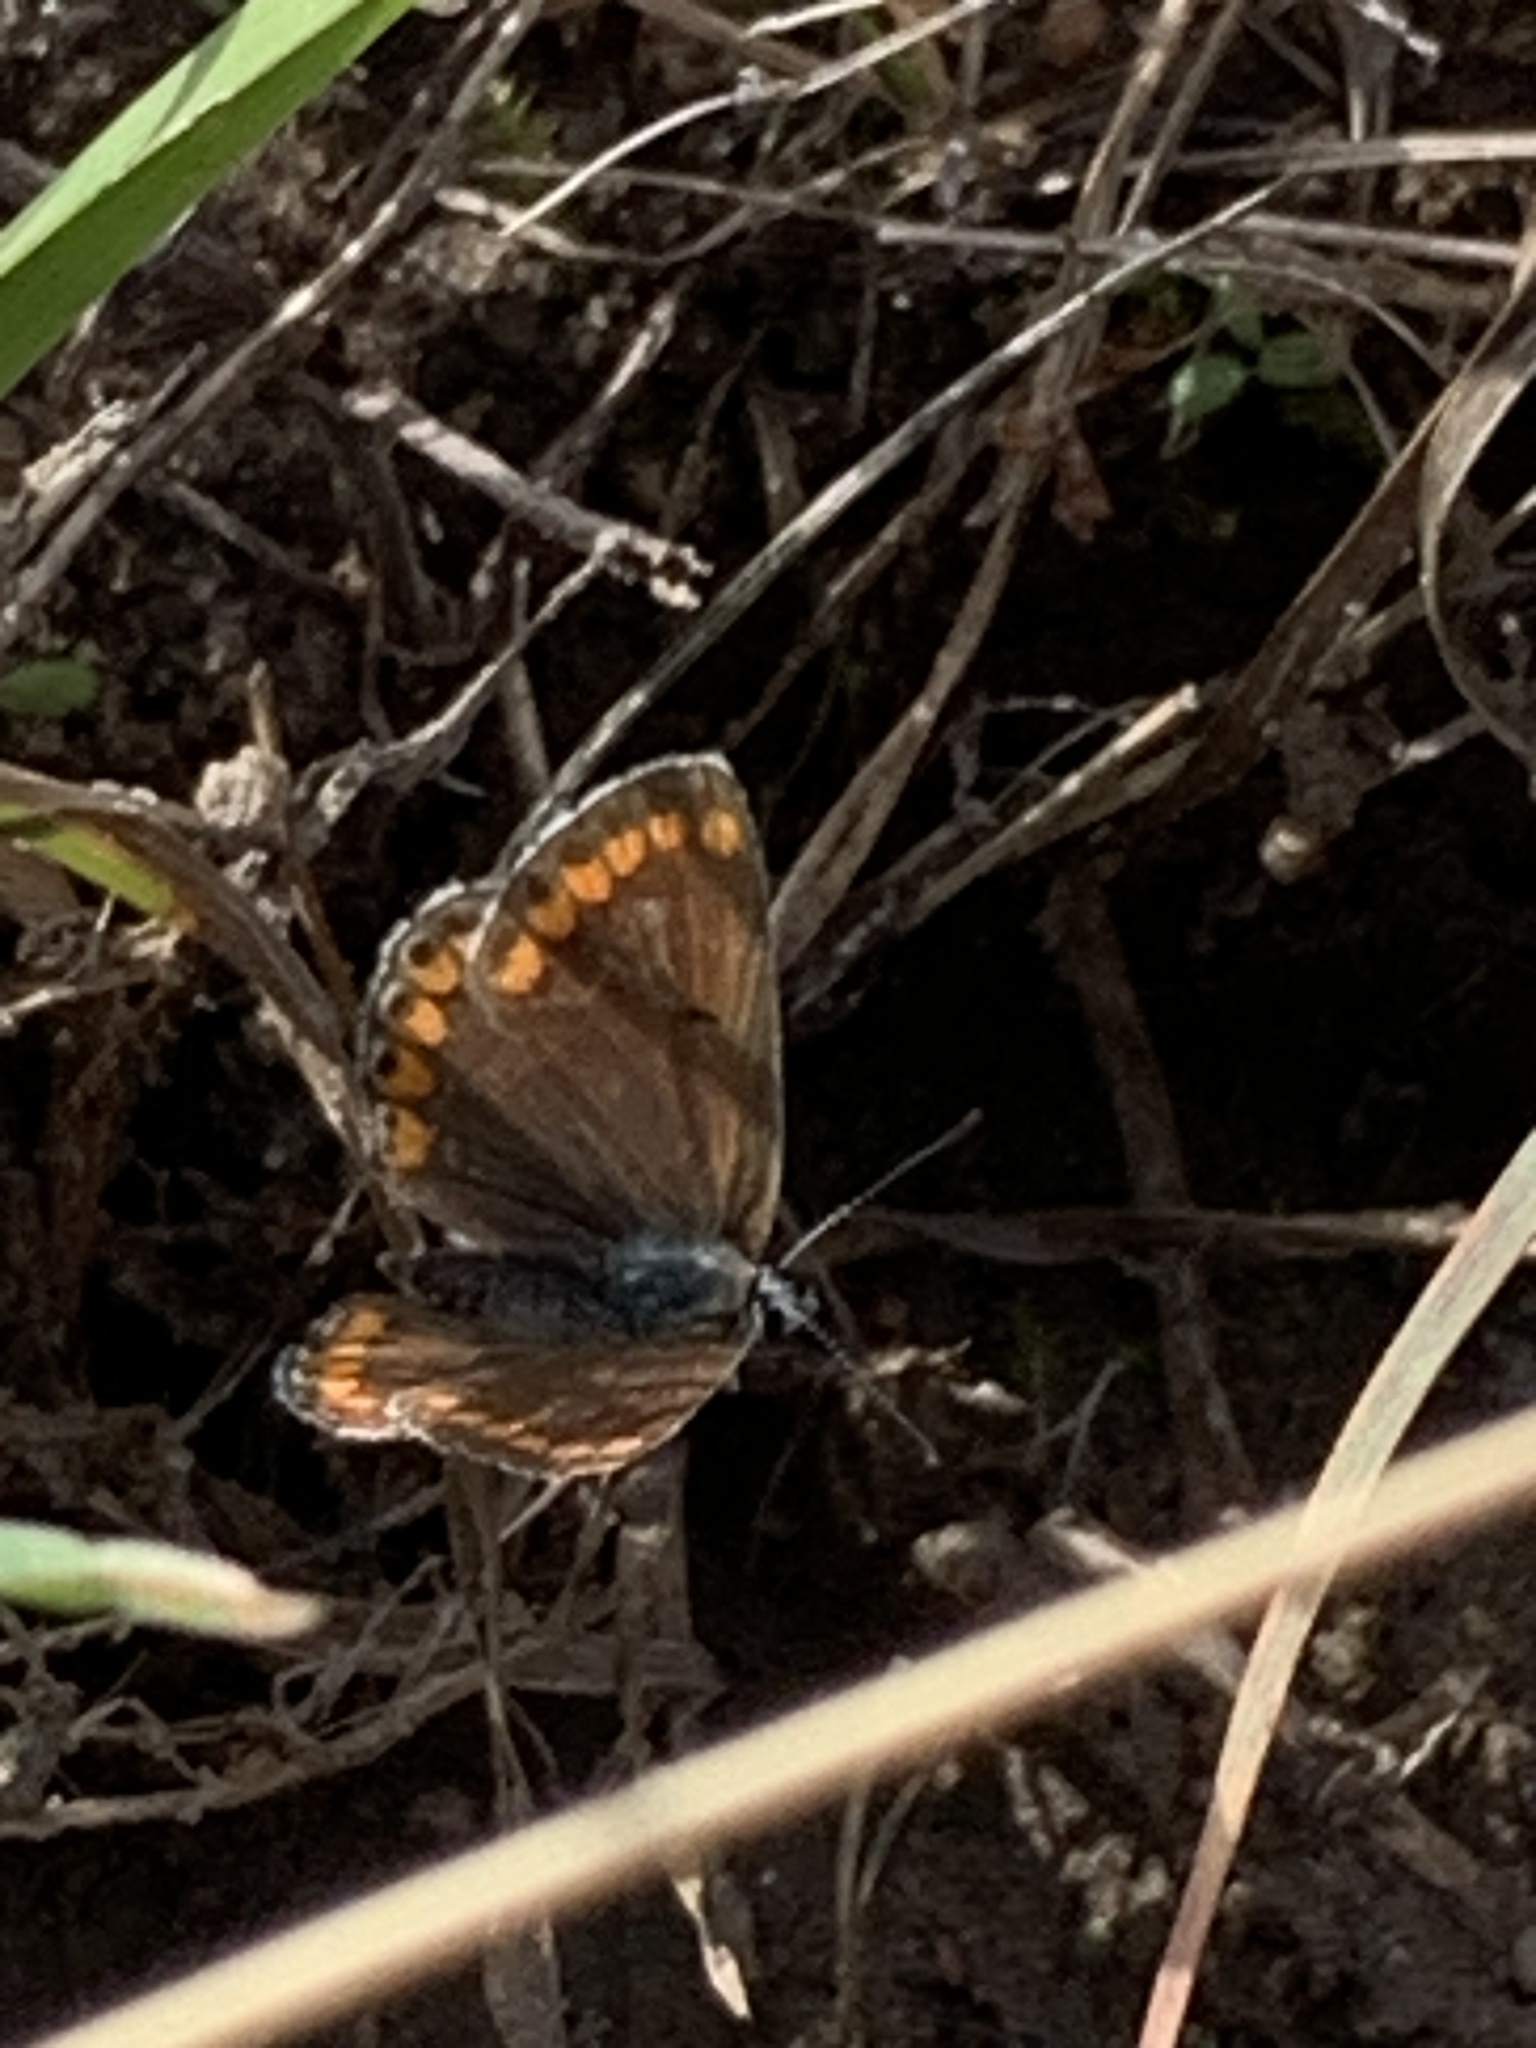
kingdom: Animalia
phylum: Arthropoda
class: Insecta
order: Lepidoptera
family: Lycaenidae
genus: Aricia
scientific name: Aricia agestis
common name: Brown argus
